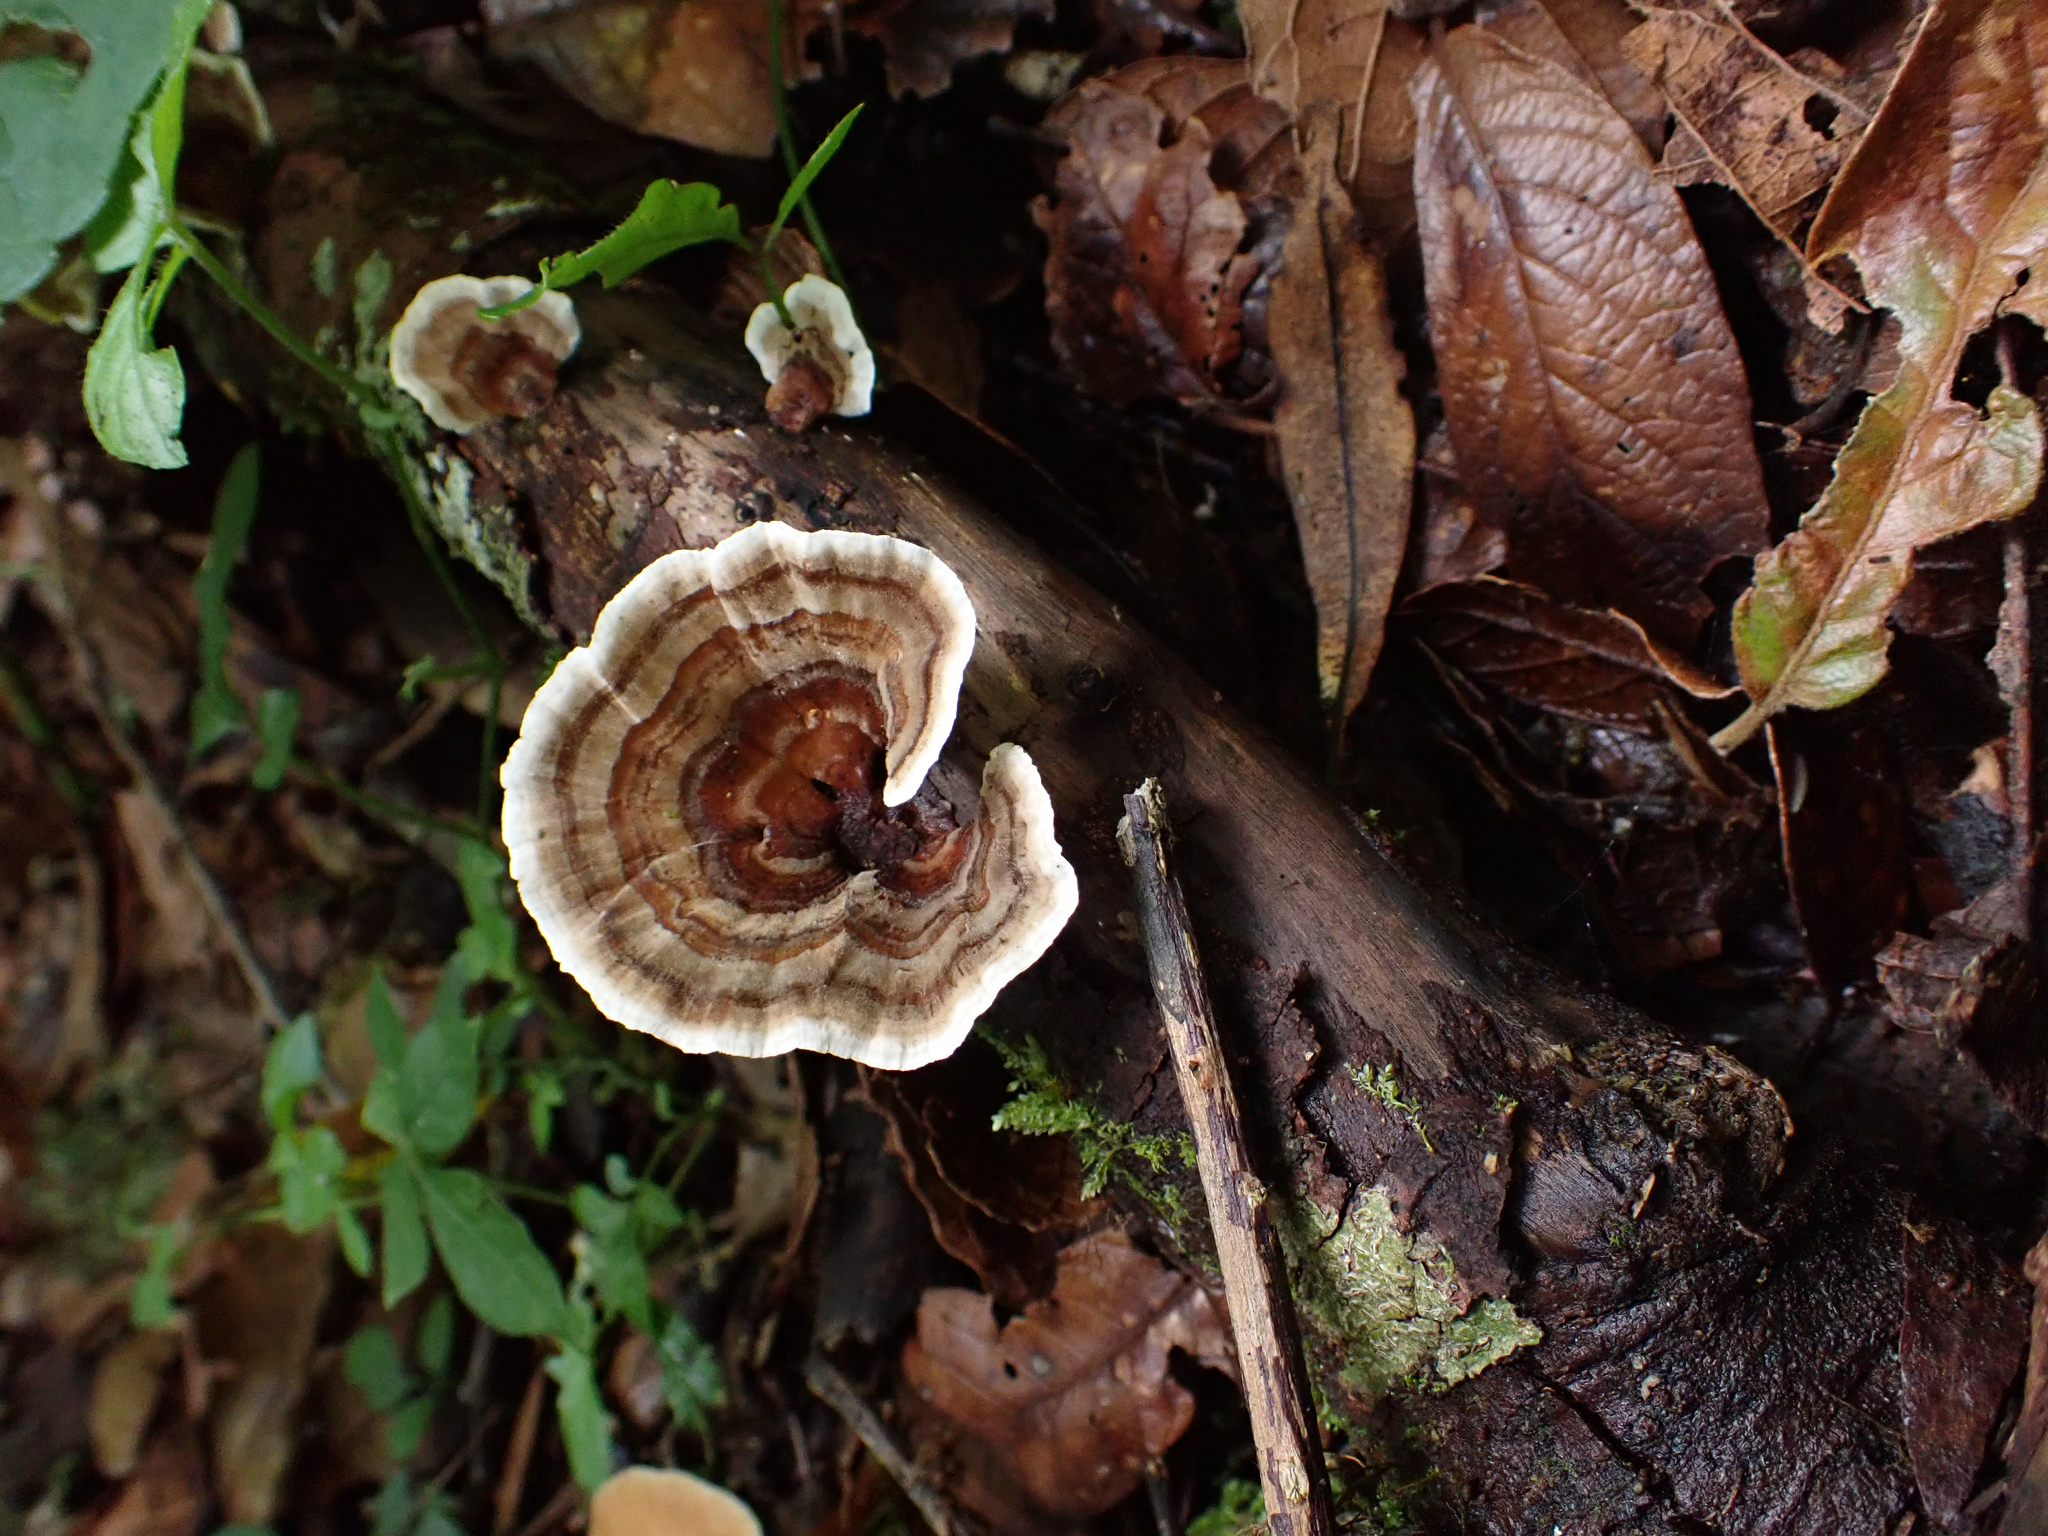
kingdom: Fungi
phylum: Basidiomycota
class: Agaricomycetes
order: Polyporales
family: Polyporaceae
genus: Trametes
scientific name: Trametes versicolor
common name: Turkeytail
